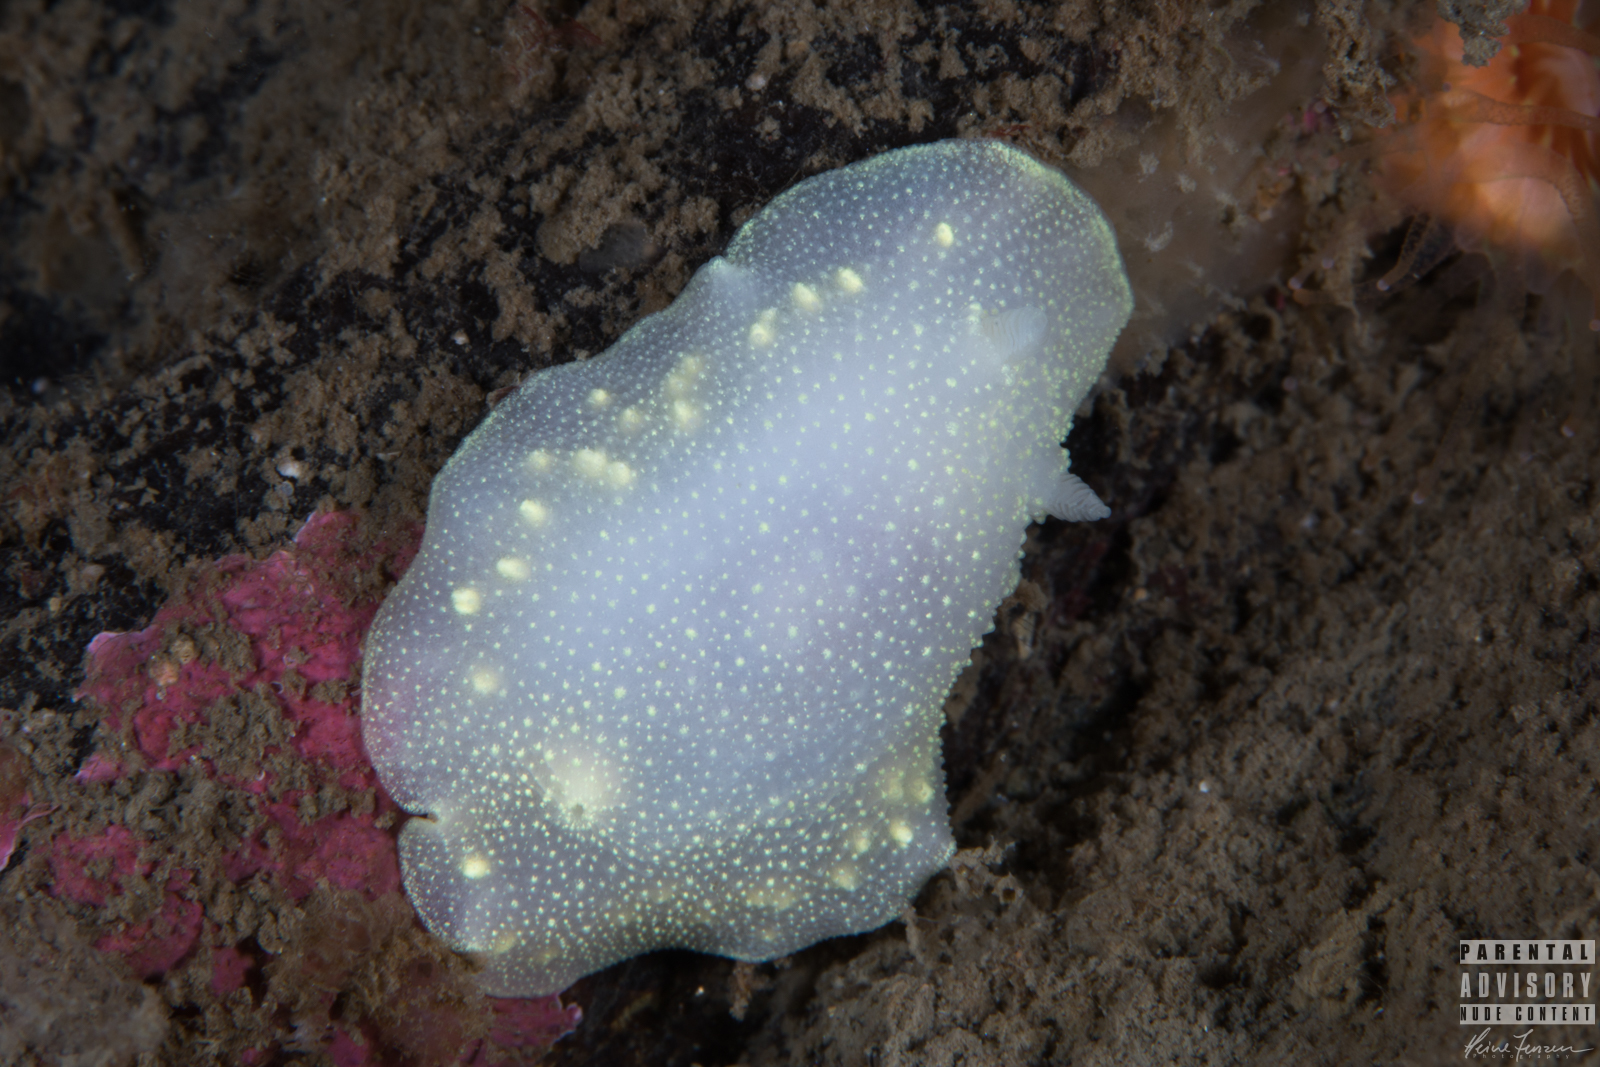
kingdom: Animalia
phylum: Mollusca
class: Gastropoda
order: Nudibranchia
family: Cadlinidae
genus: Cadlina
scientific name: Cadlina laevis
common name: White atlantic cadlina
